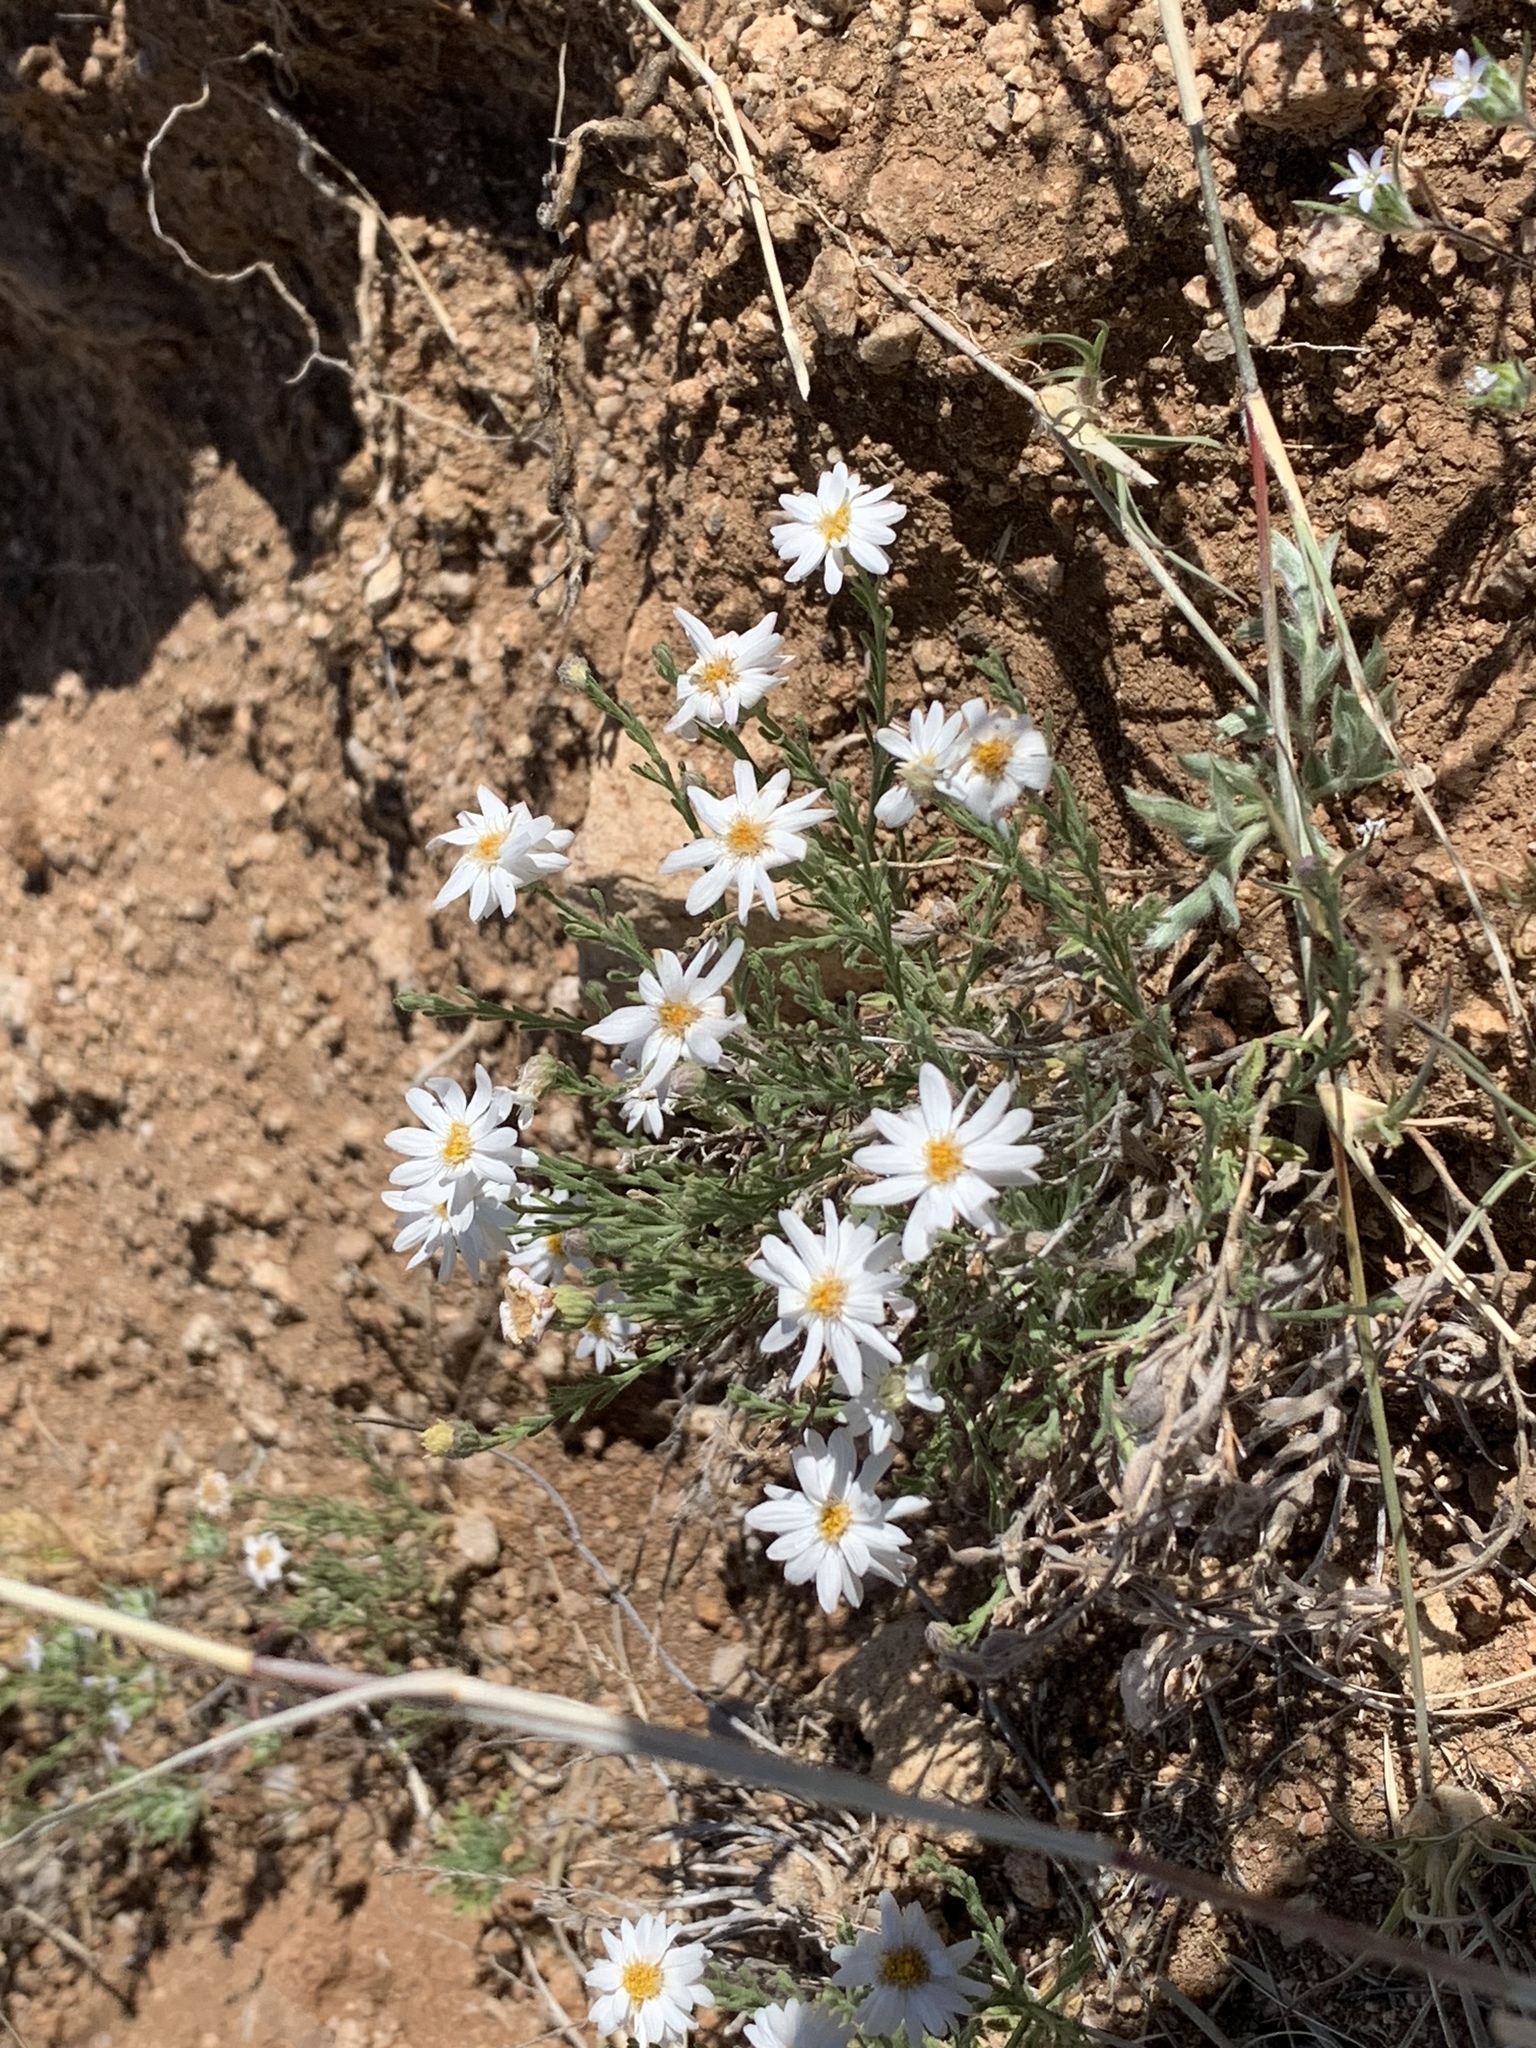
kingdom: Plantae
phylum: Tracheophyta
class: Magnoliopsida
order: Asterales
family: Asteraceae
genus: Melampodium
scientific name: Melampodium leucanthum
